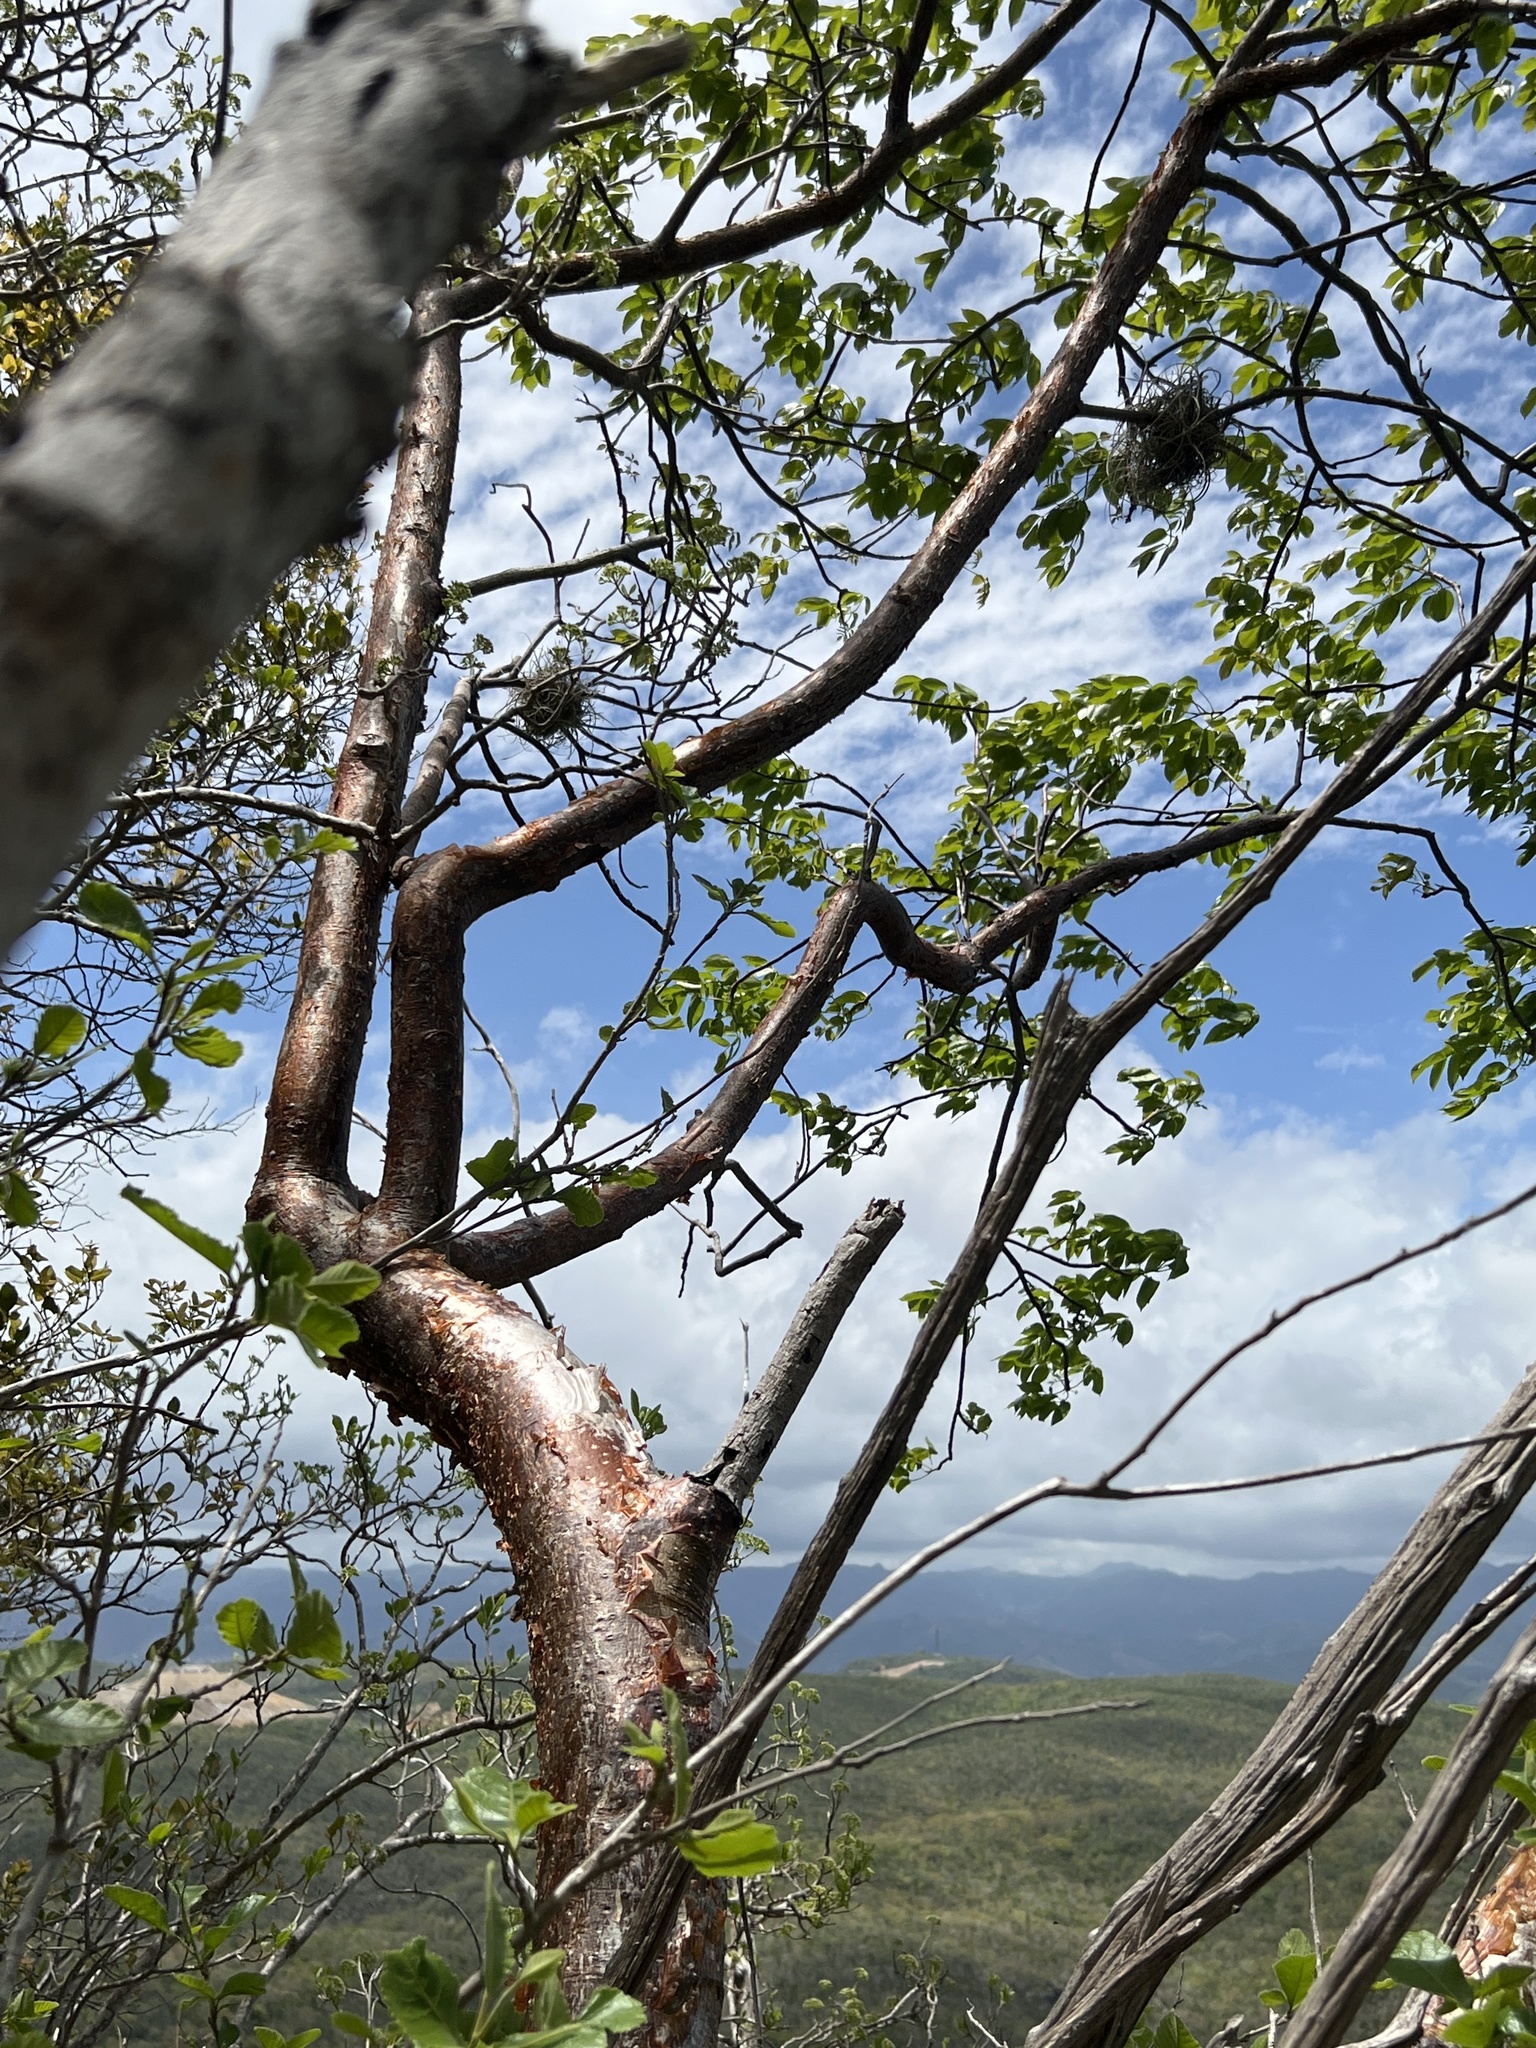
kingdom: Plantae
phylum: Tracheophyta
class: Magnoliopsida
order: Sapindales
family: Burseraceae
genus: Bursera
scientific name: Bursera simaruba
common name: Turpentine tree
